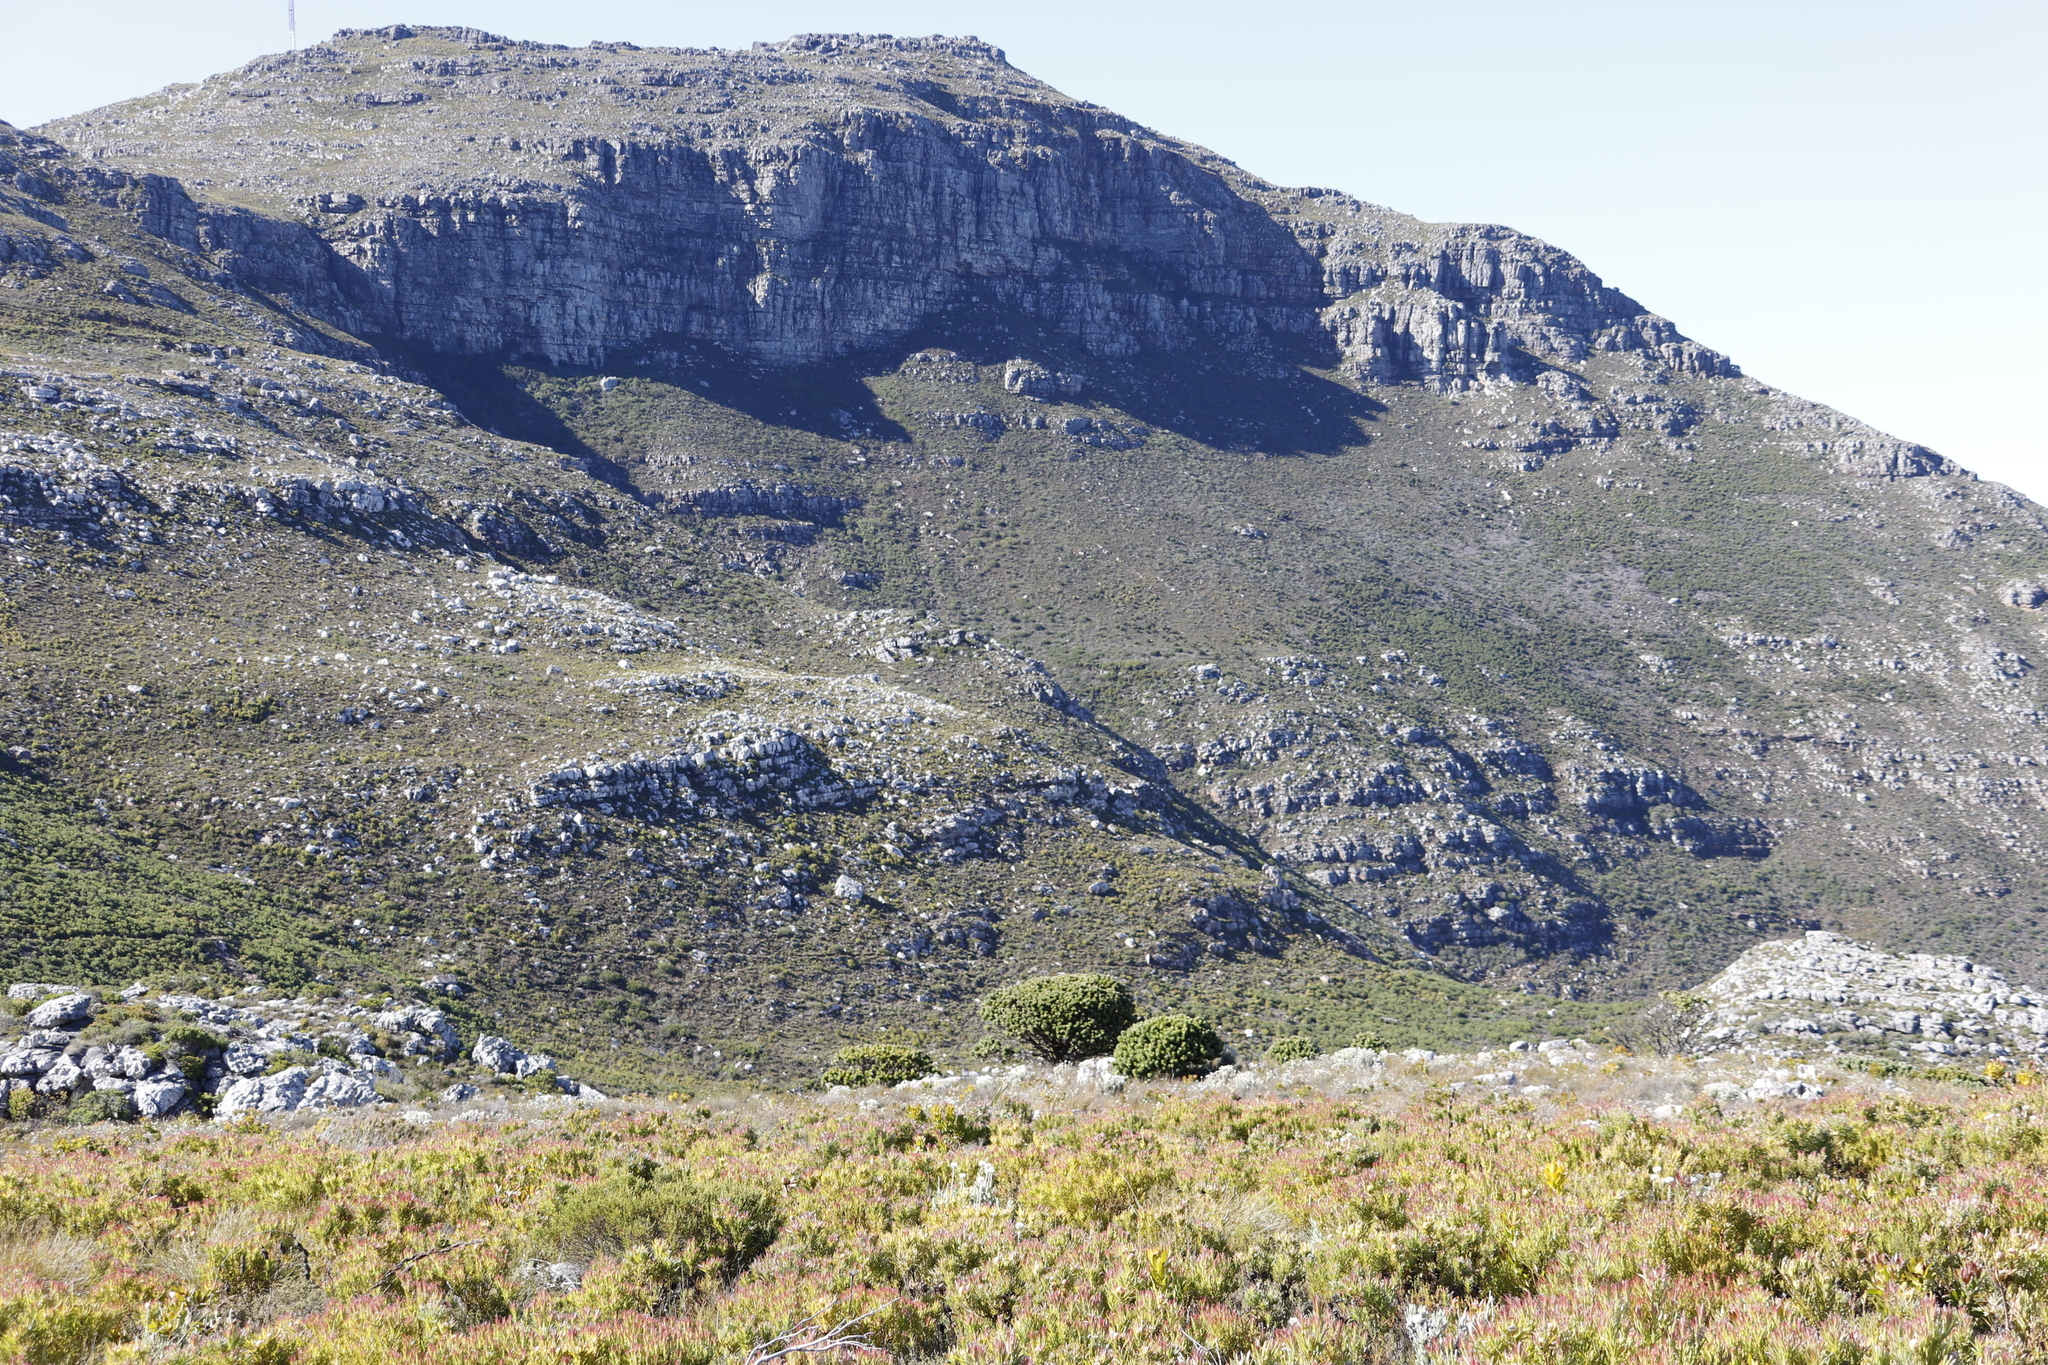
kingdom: Plantae
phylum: Tracheophyta
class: Magnoliopsida
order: Proteales
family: Proteaceae
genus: Mimetes
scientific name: Mimetes fimbriifolius
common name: Fringed bottlebrush
